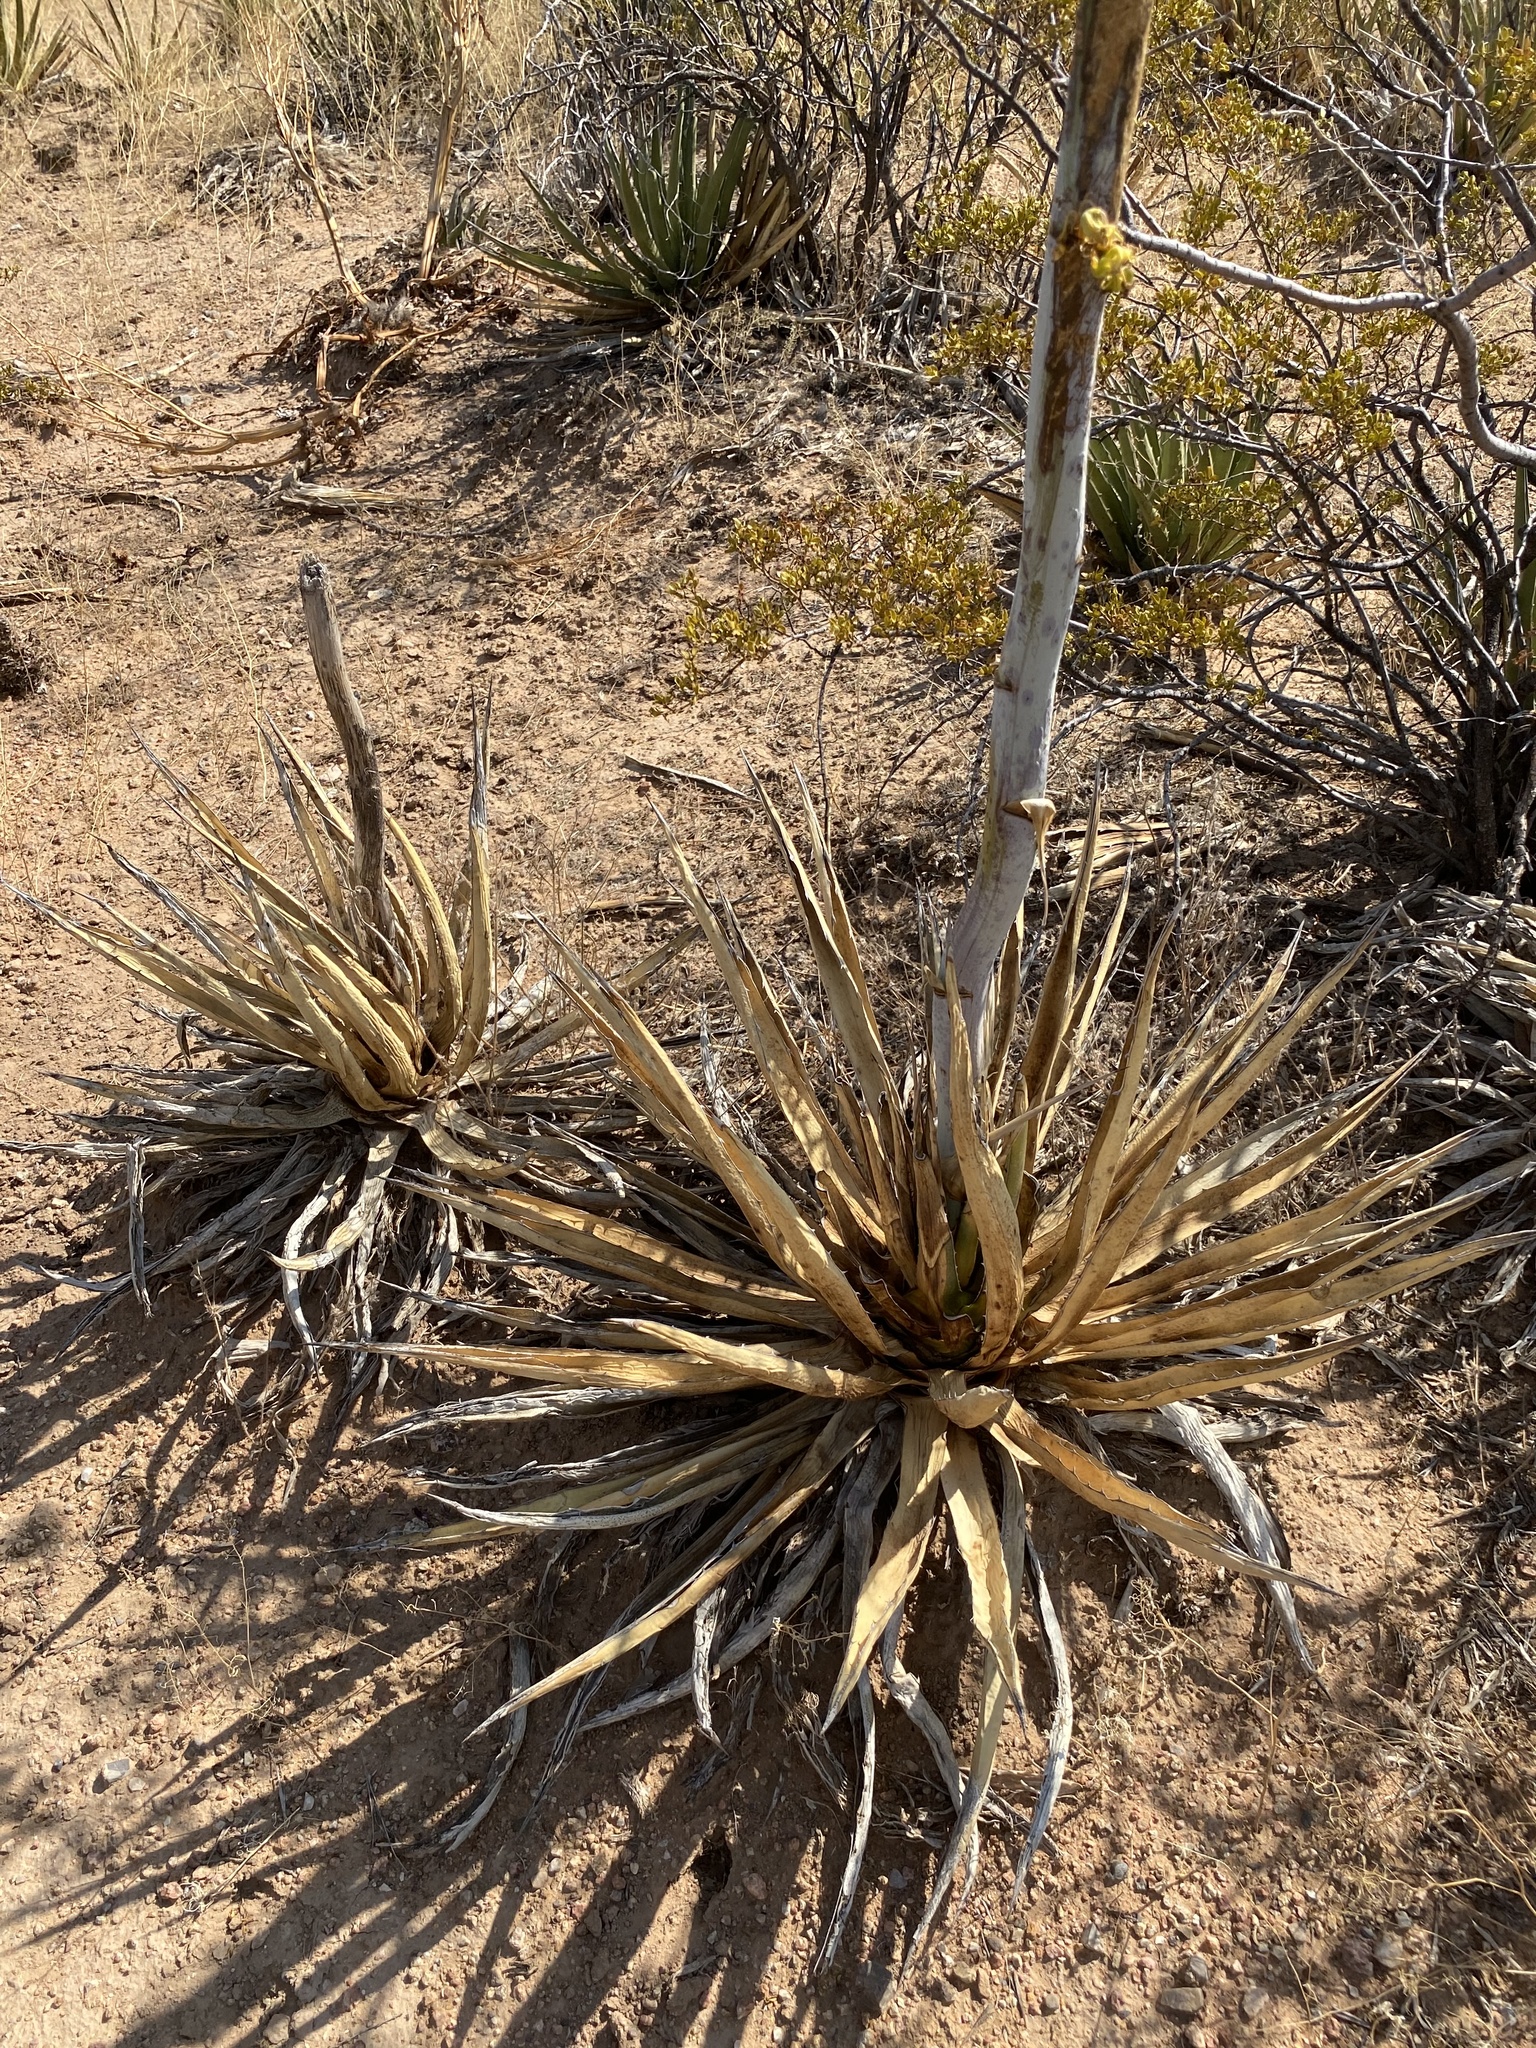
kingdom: Plantae
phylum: Tracheophyta
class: Liliopsida
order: Asparagales
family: Asparagaceae
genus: Agave
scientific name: Agave lechuguilla
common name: Lecheguilla agave
